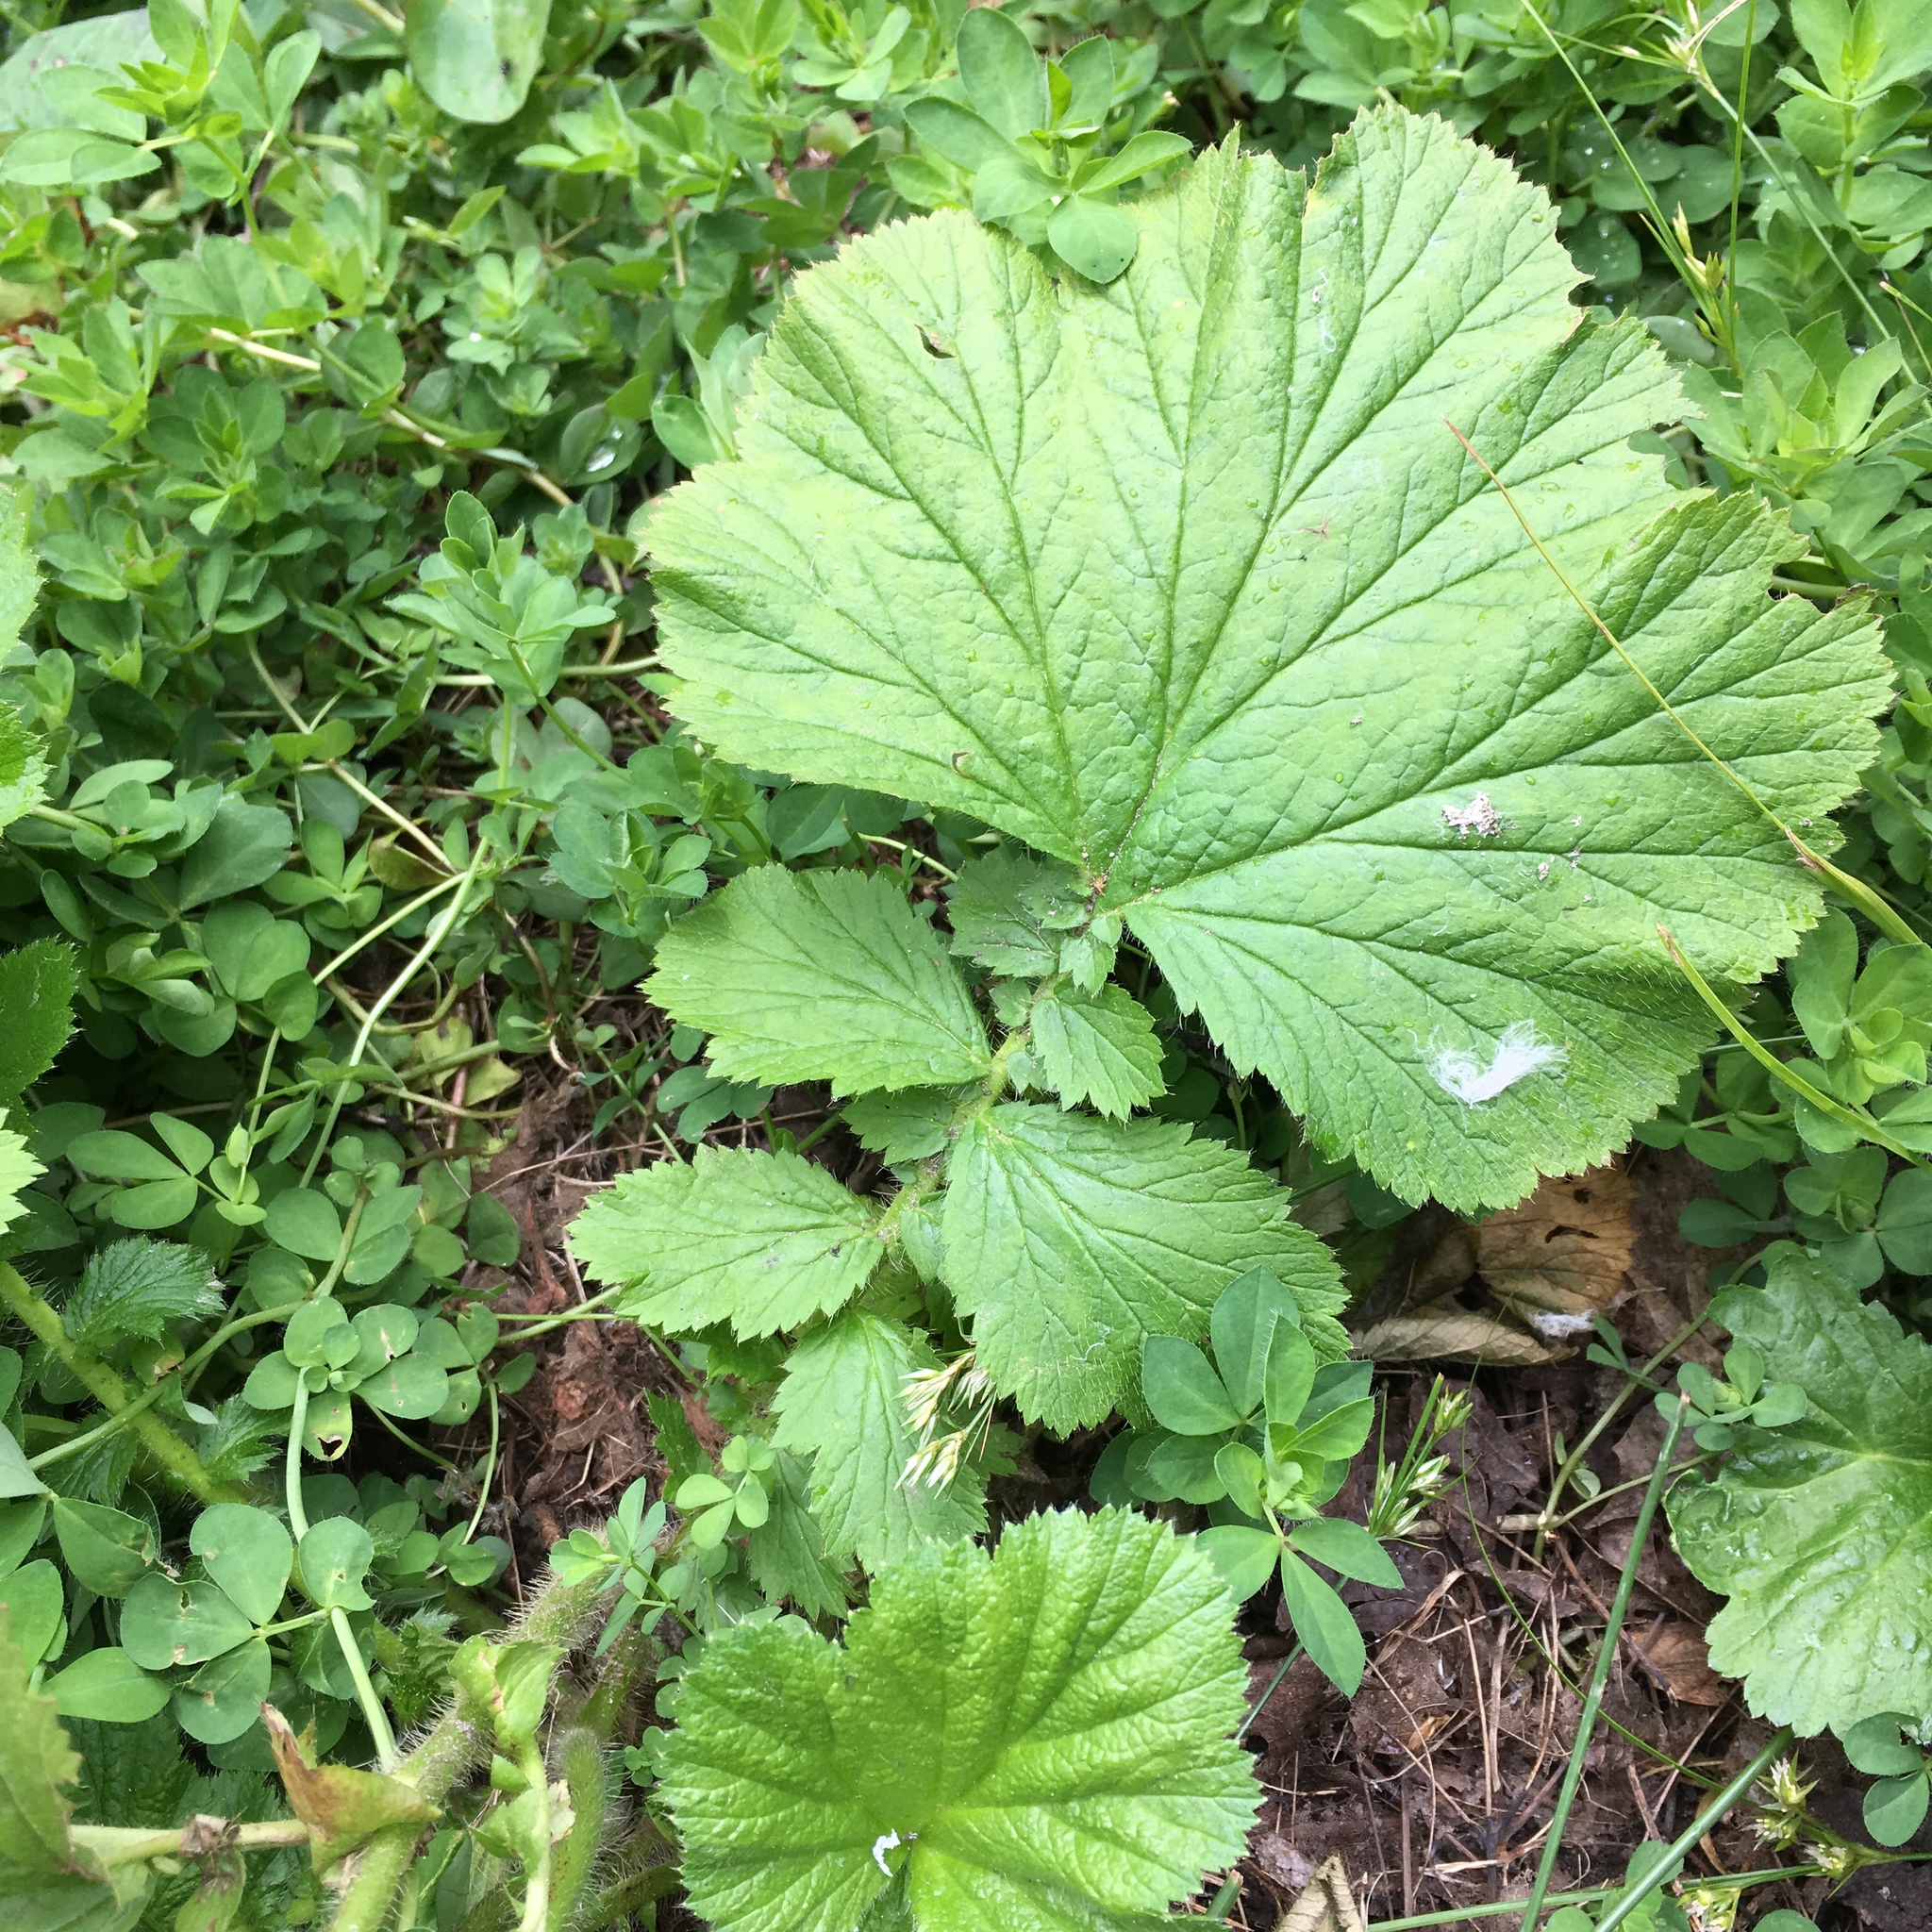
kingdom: Plantae
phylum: Tracheophyta
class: Magnoliopsida
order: Rosales
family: Rosaceae
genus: Geum
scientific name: Geum macrophyllum
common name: Large-leaved avens
